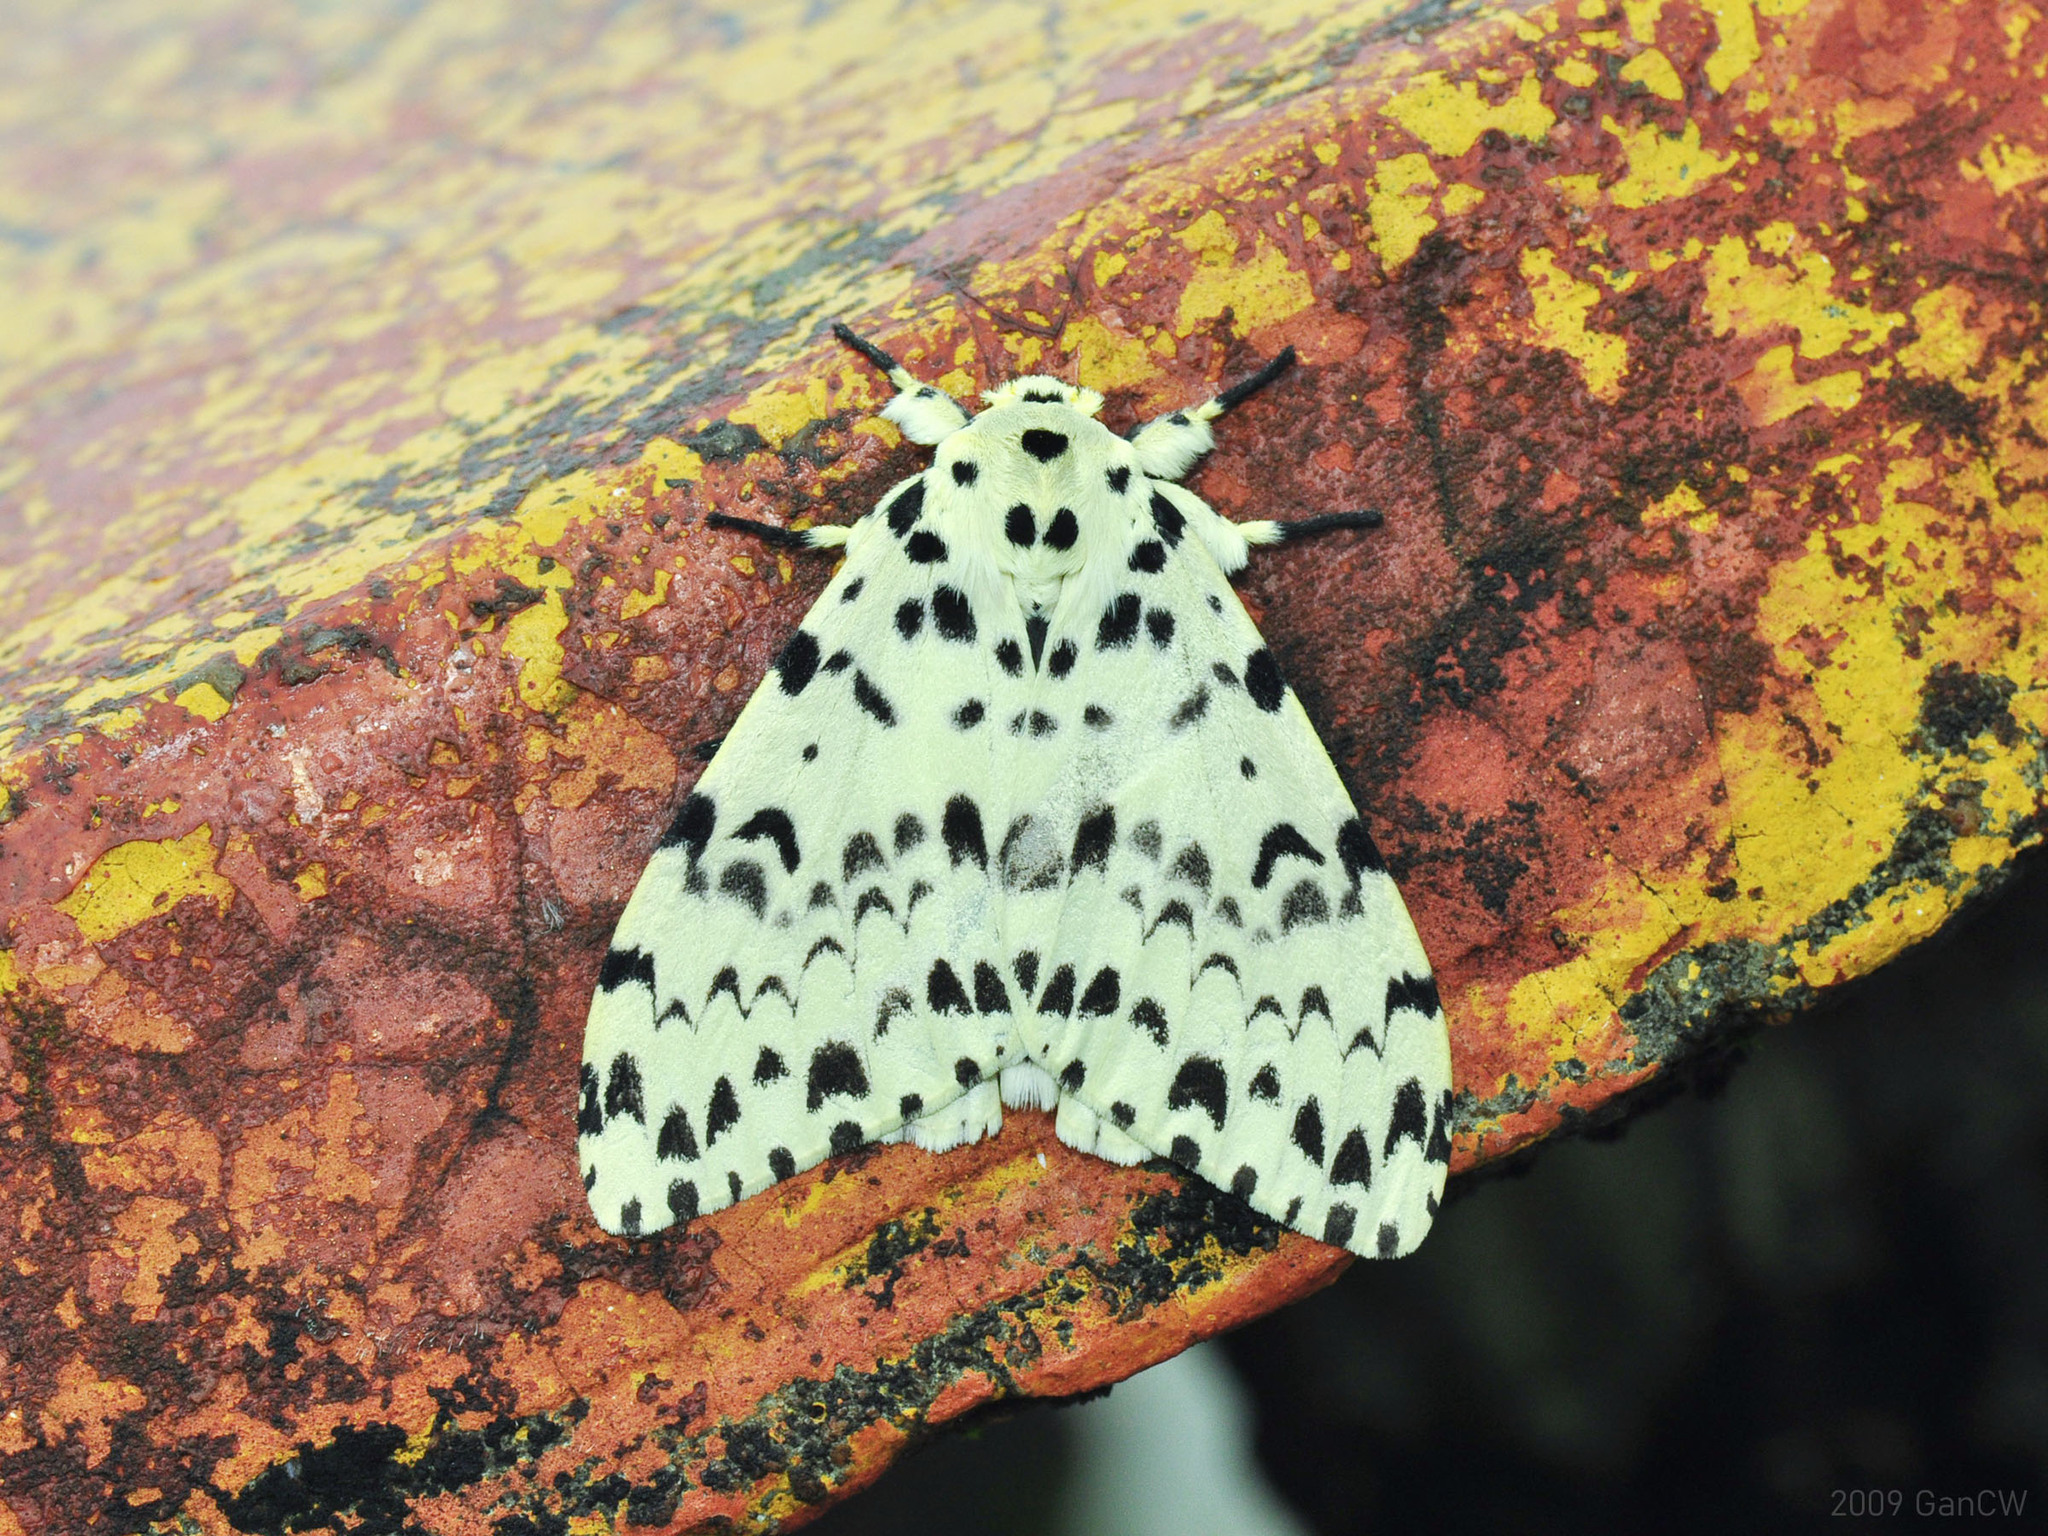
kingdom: Animalia
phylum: Arthropoda
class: Insecta
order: Lepidoptera
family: Erebidae
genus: Lymantria
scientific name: Lymantria narindra
